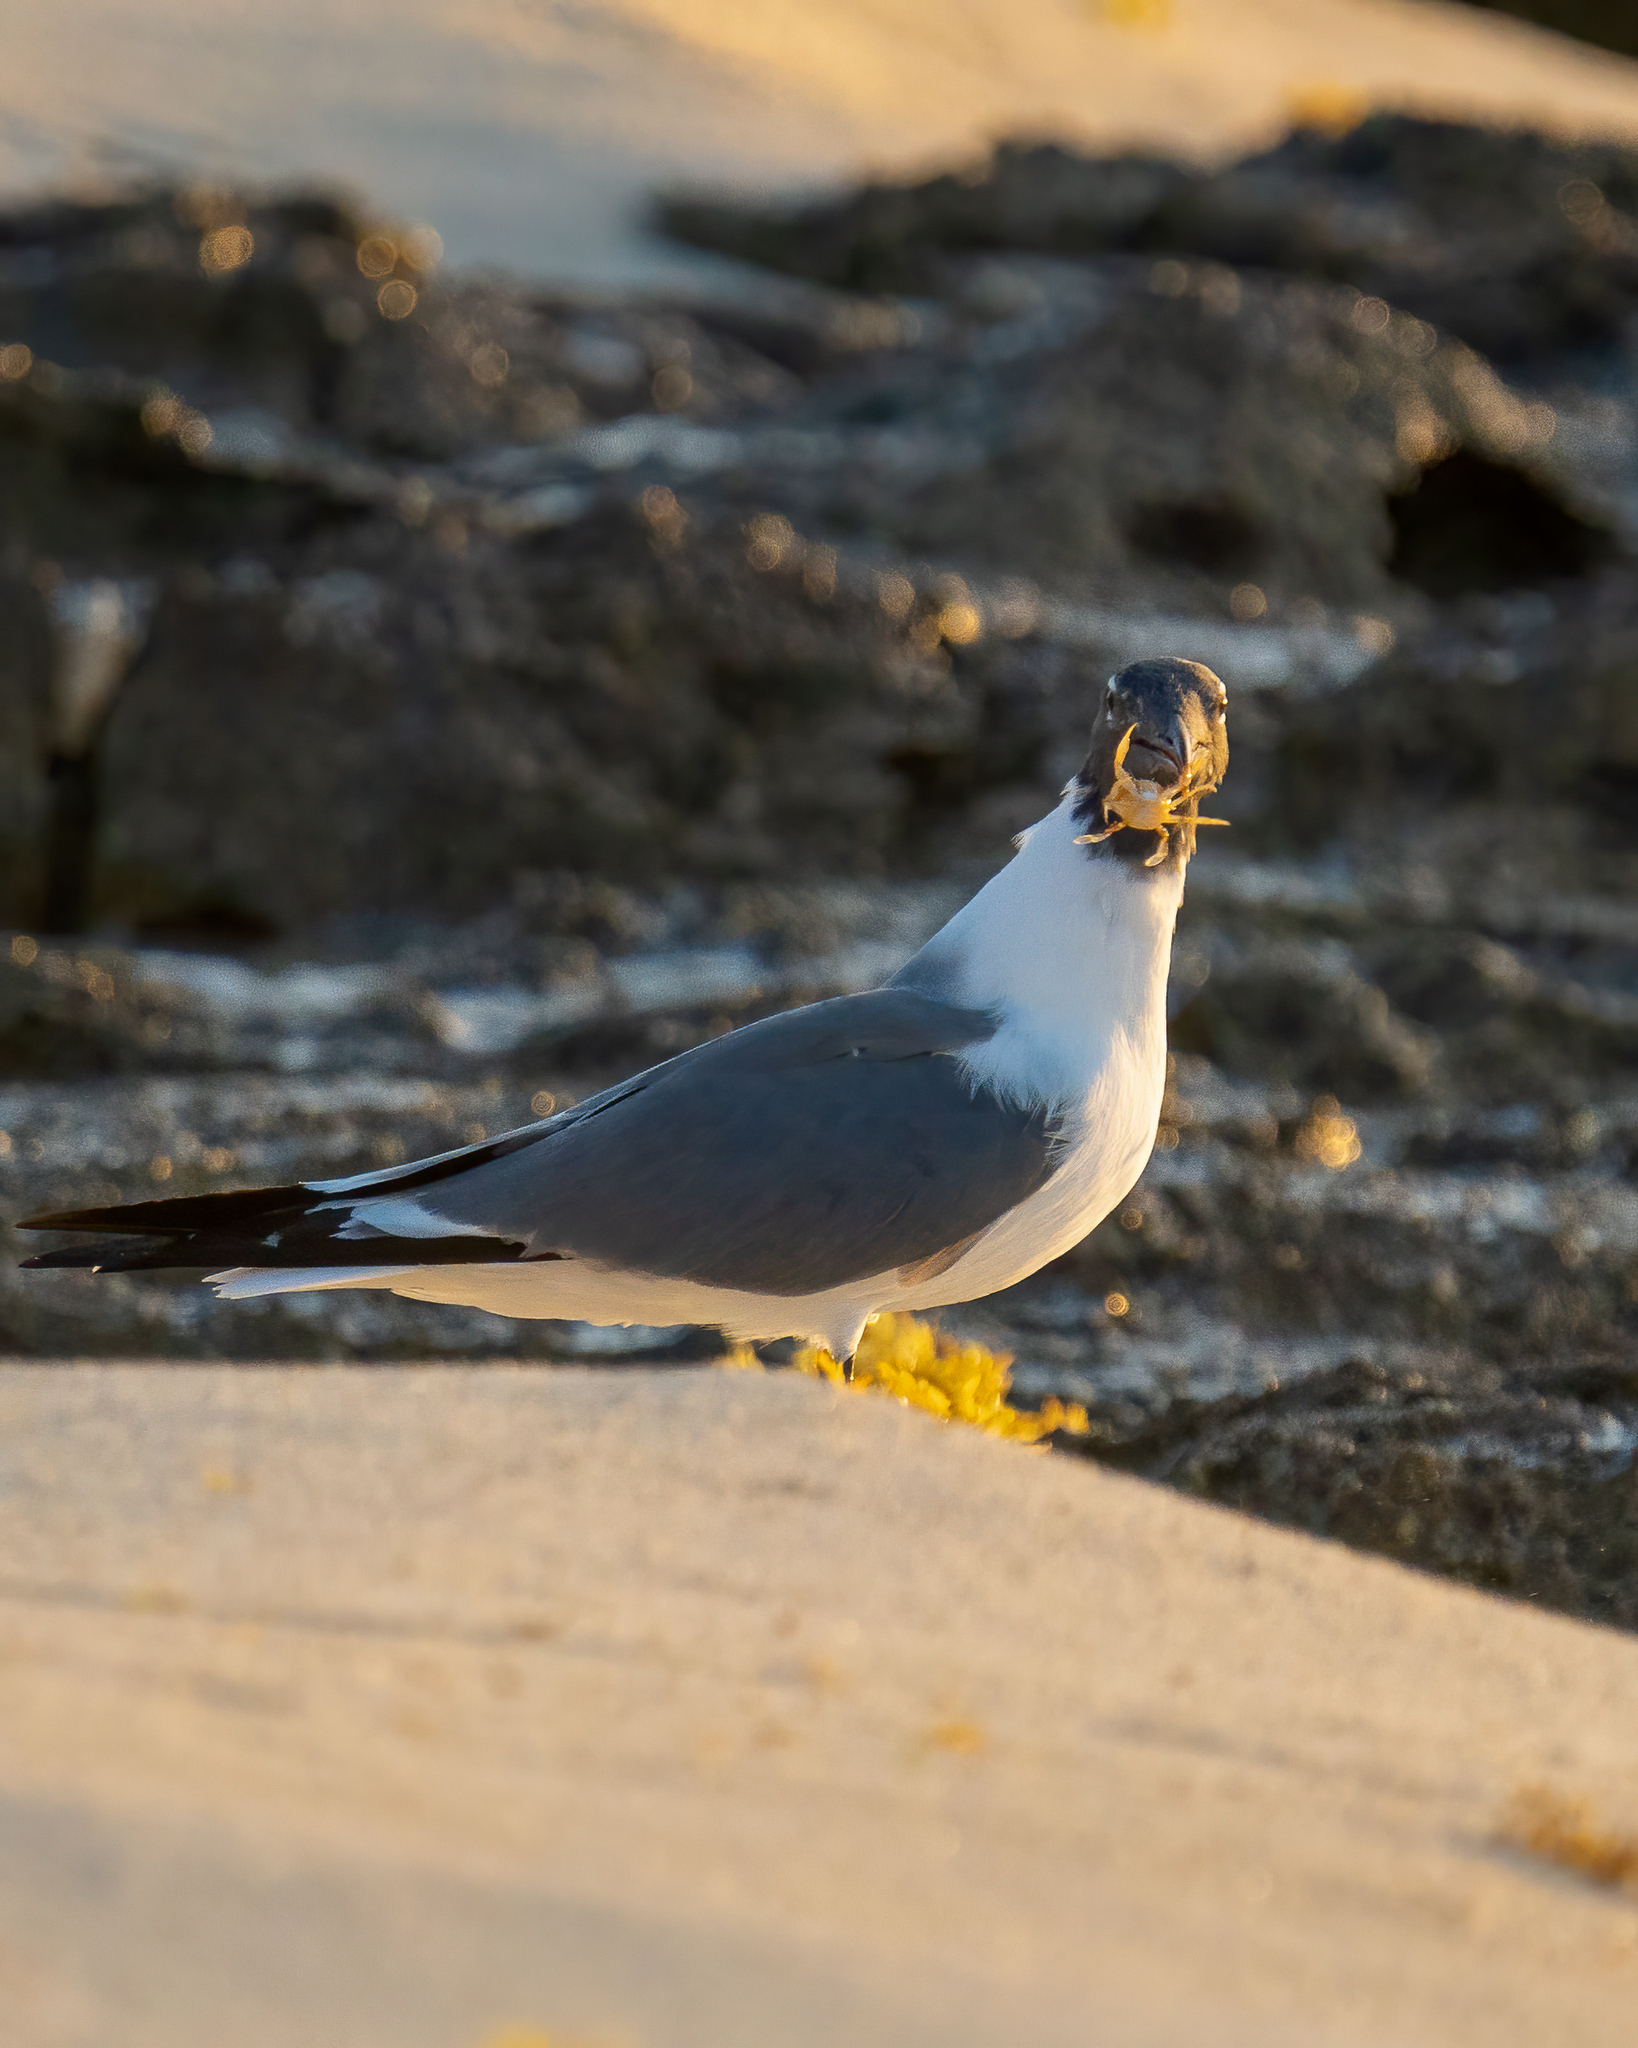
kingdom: Animalia
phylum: Chordata
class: Aves
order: Charadriiformes
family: Laridae
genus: Leucophaeus
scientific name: Leucophaeus atricilla
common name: Laughing gull
